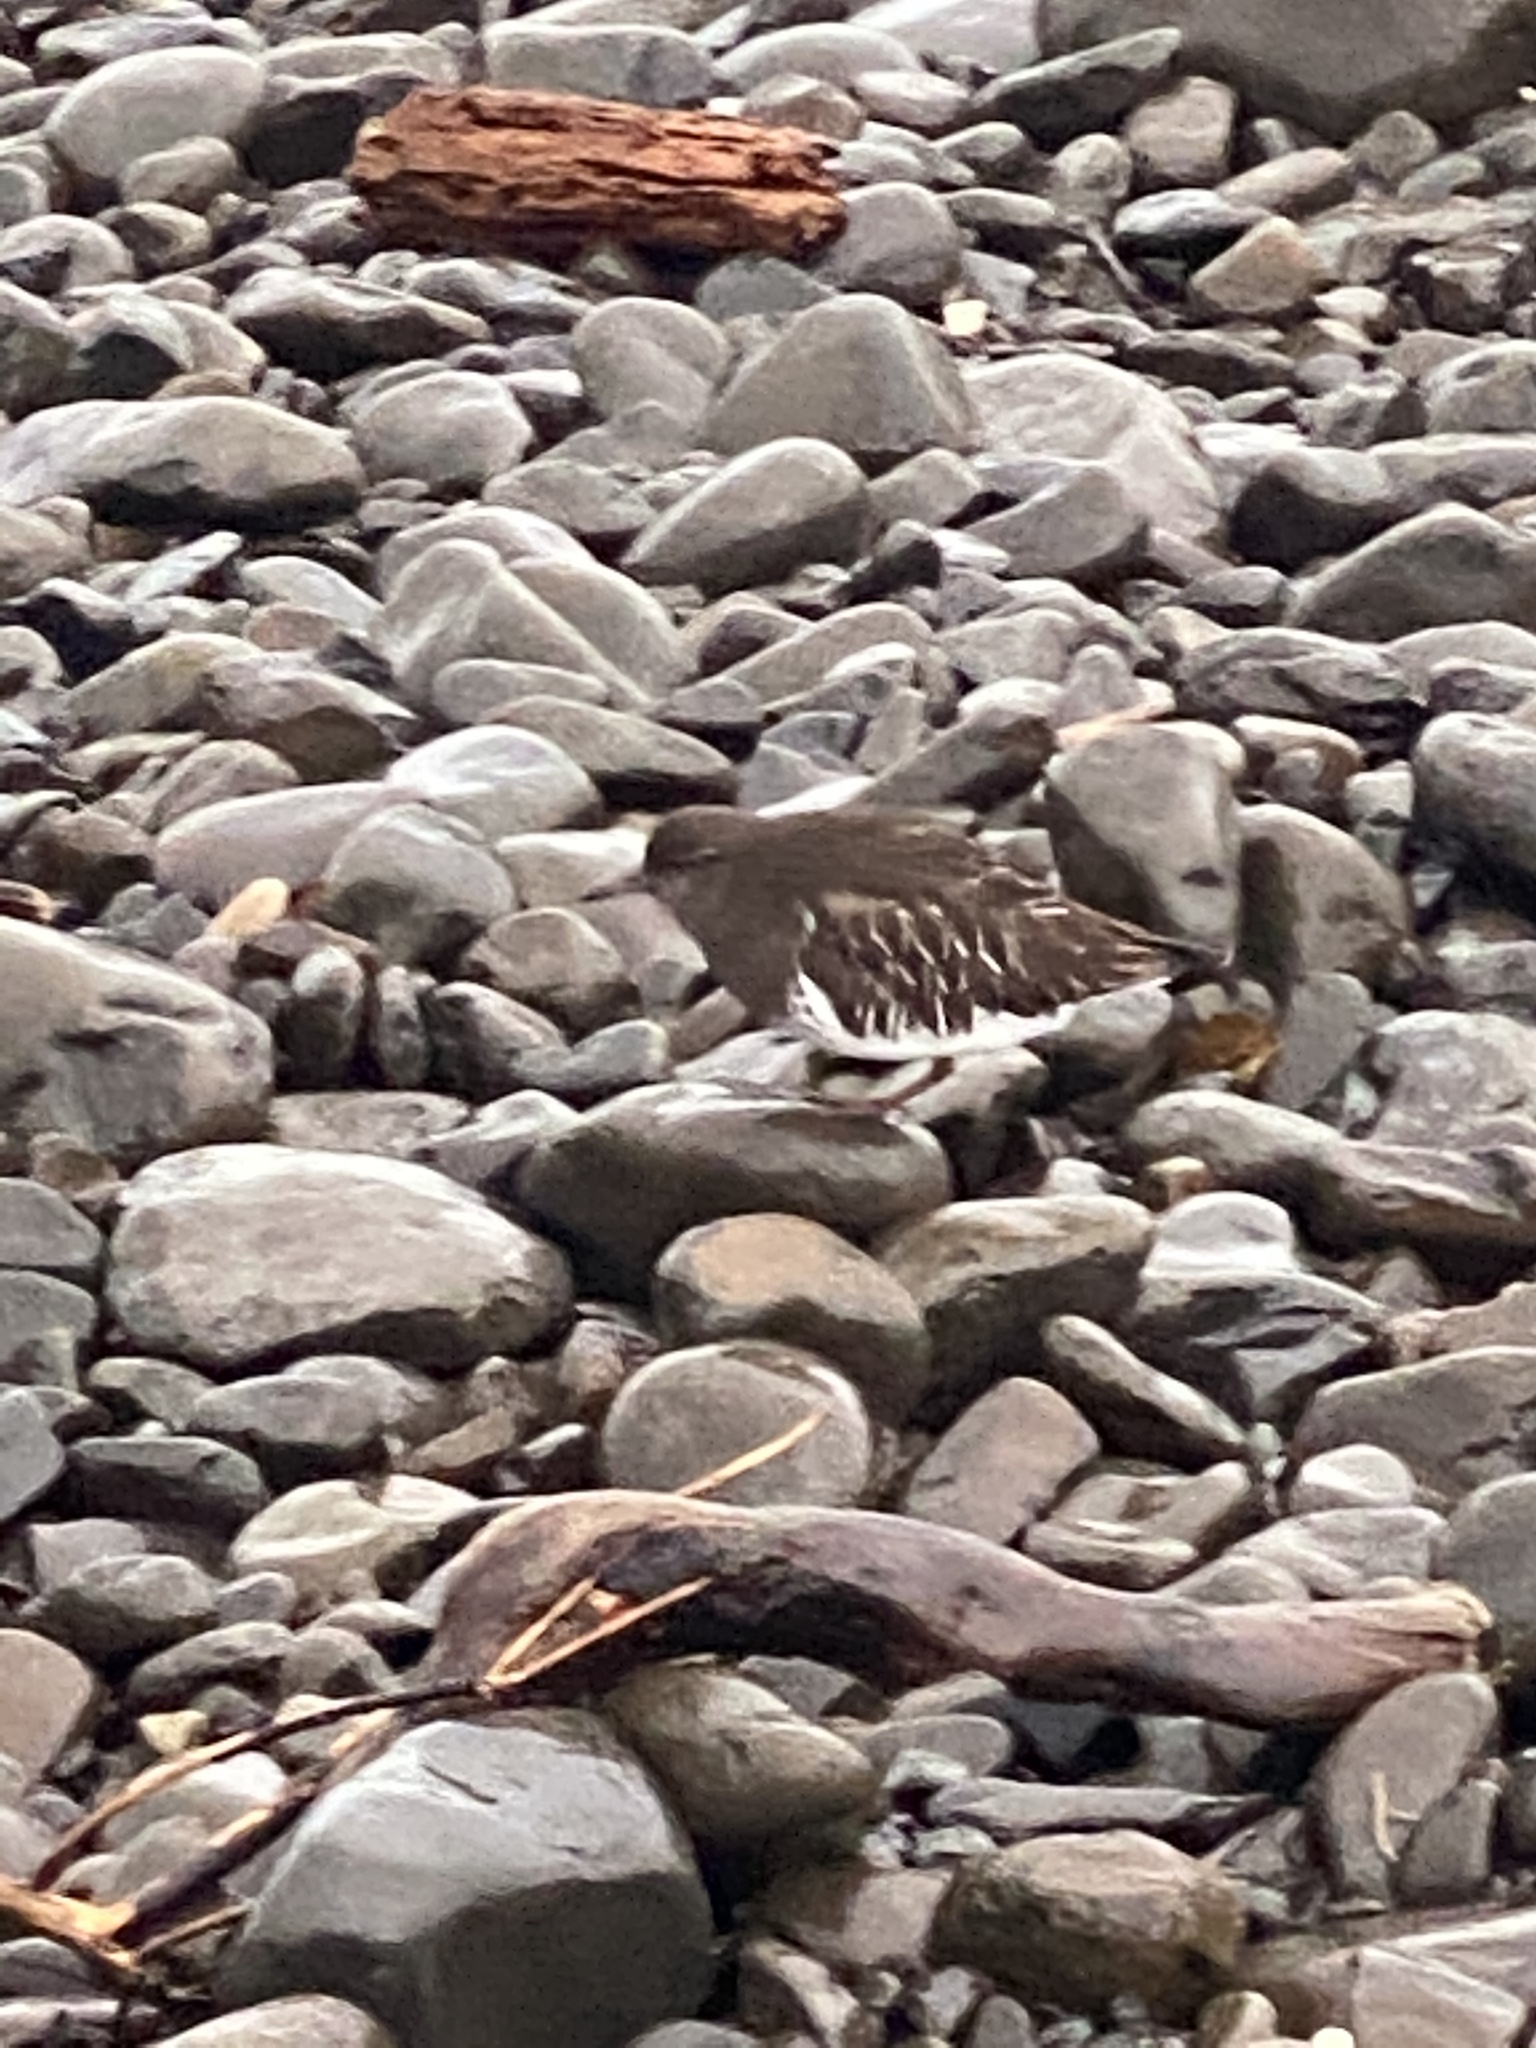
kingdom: Animalia
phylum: Chordata
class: Aves
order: Charadriiformes
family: Scolopacidae
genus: Arenaria
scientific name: Arenaria melanocephala
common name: Black turnstone
